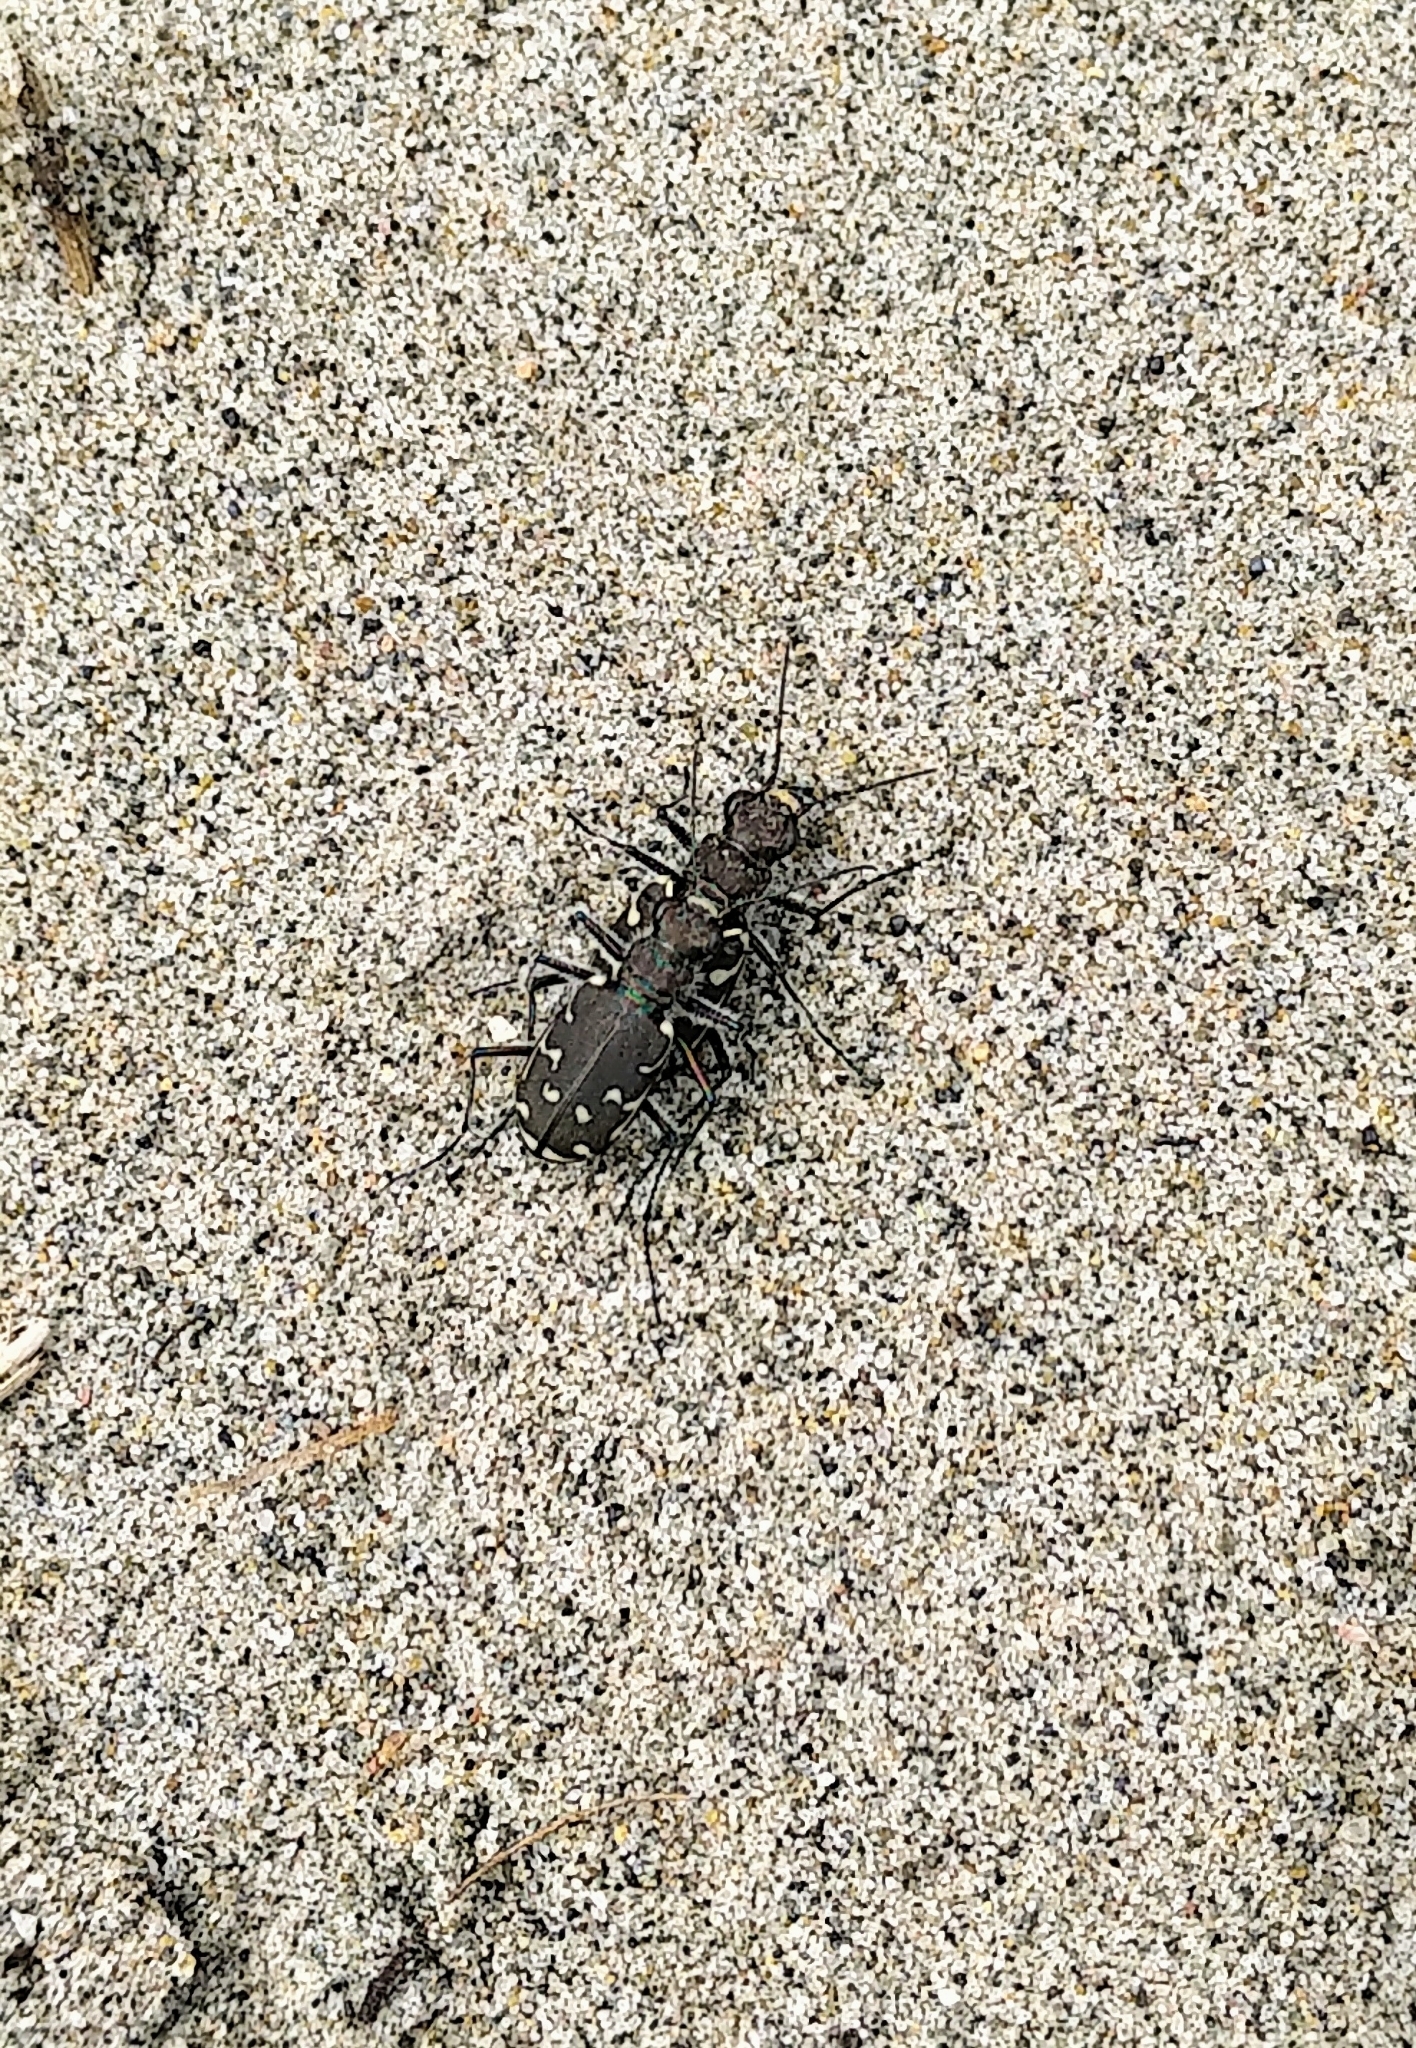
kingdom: Animalia
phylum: Arthropoda
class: Insecta
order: Coleoptera
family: Carabidae
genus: Cicindela
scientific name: Cicindela duodecimguttata
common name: Twelve-spotted tiger beetle
